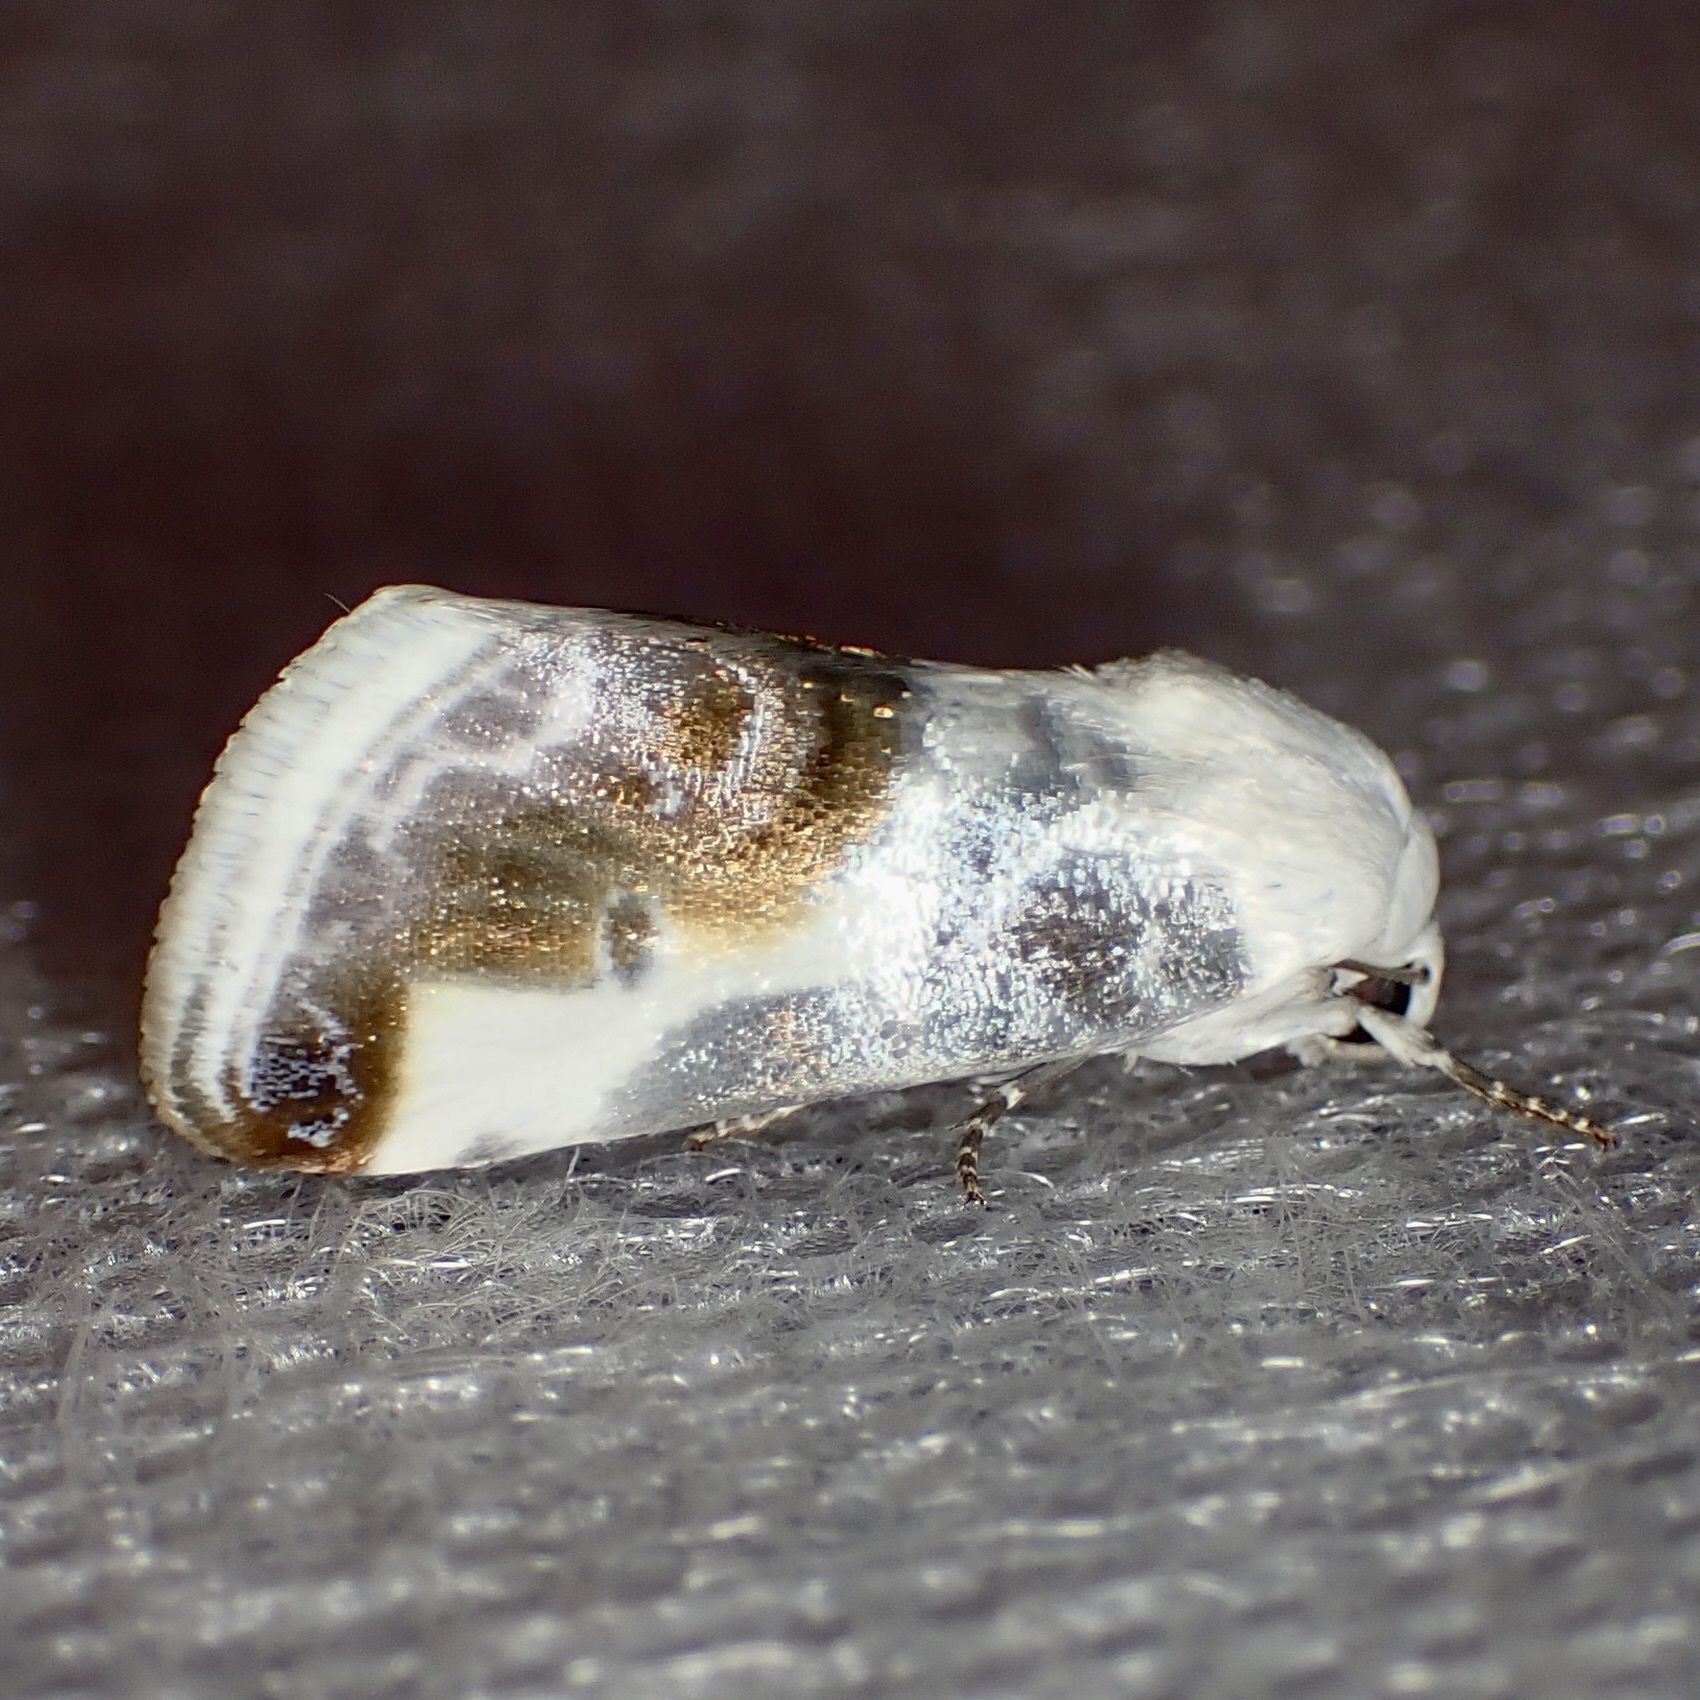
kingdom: Animalia
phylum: Arthropoda
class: Insecta
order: Lepidoptera
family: Noctuidae
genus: Acontia
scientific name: Acontia cretata
